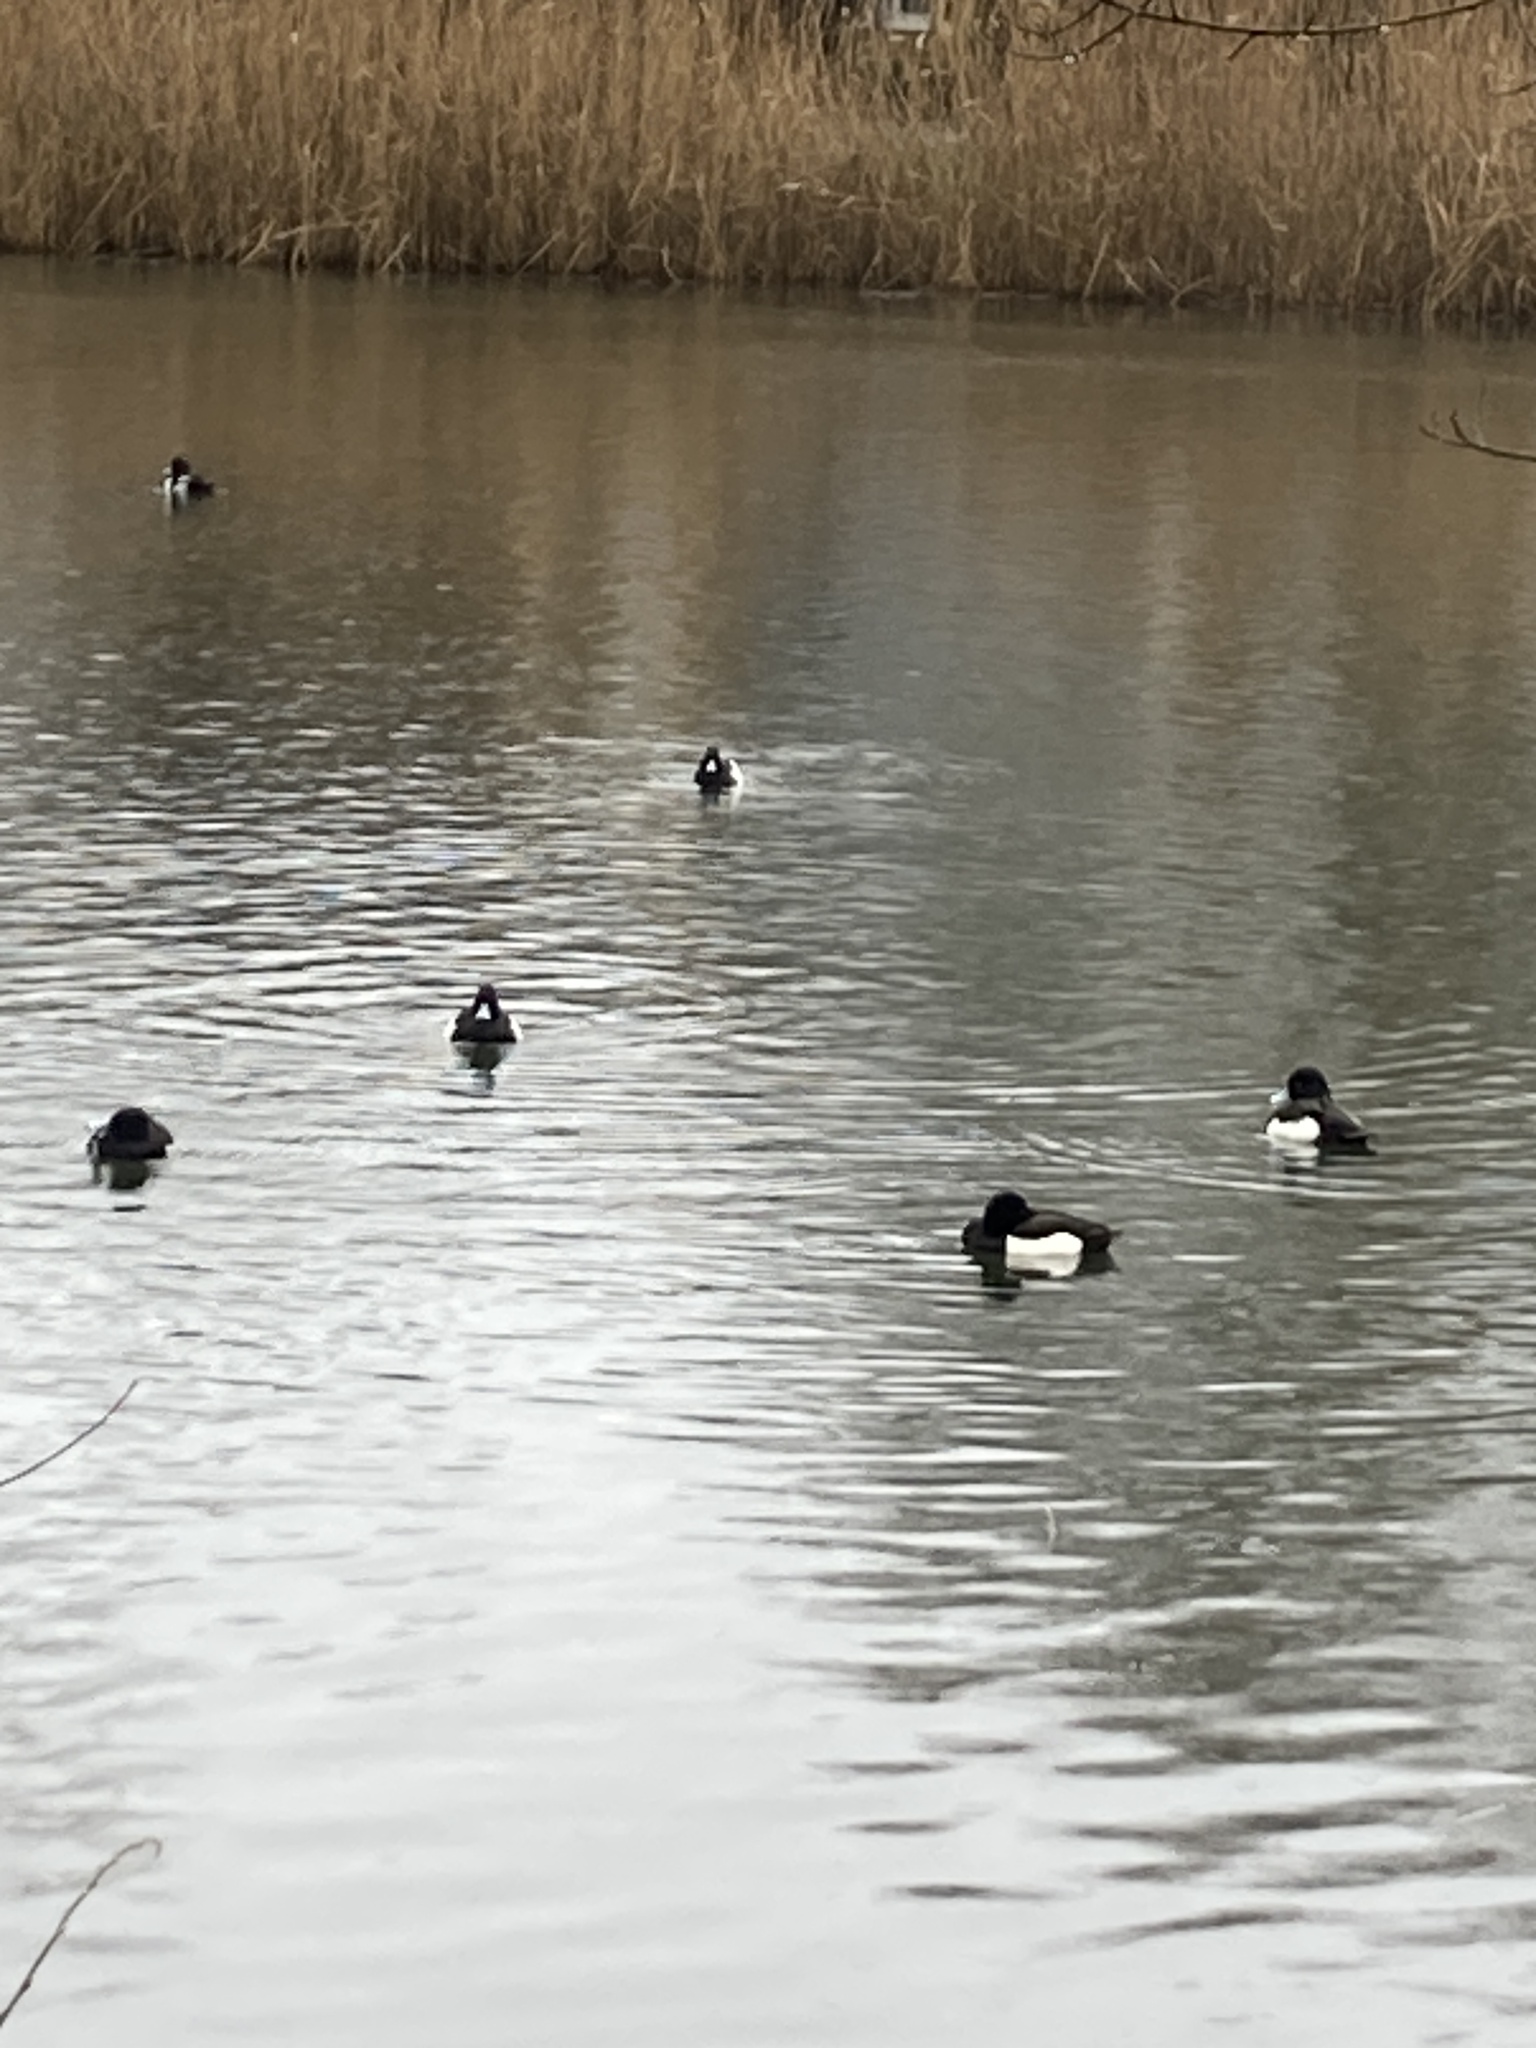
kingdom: Animalia
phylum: Chordata
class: Aves
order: Anseriformes
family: Anatidae
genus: Aythya
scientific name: Aythya fuligula
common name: Tufted duck
